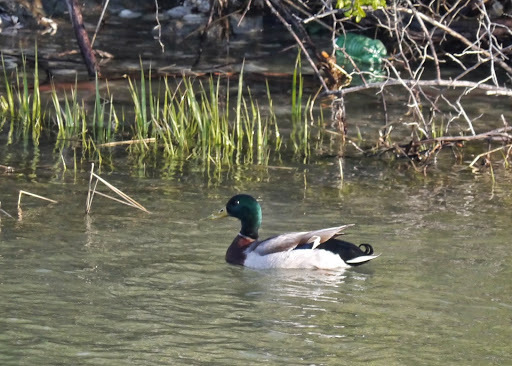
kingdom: Animalia
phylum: Chordata
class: Aves
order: Anseriformes
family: Anatidae
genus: Anas
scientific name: Anas platyrhynchos
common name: Mallard
